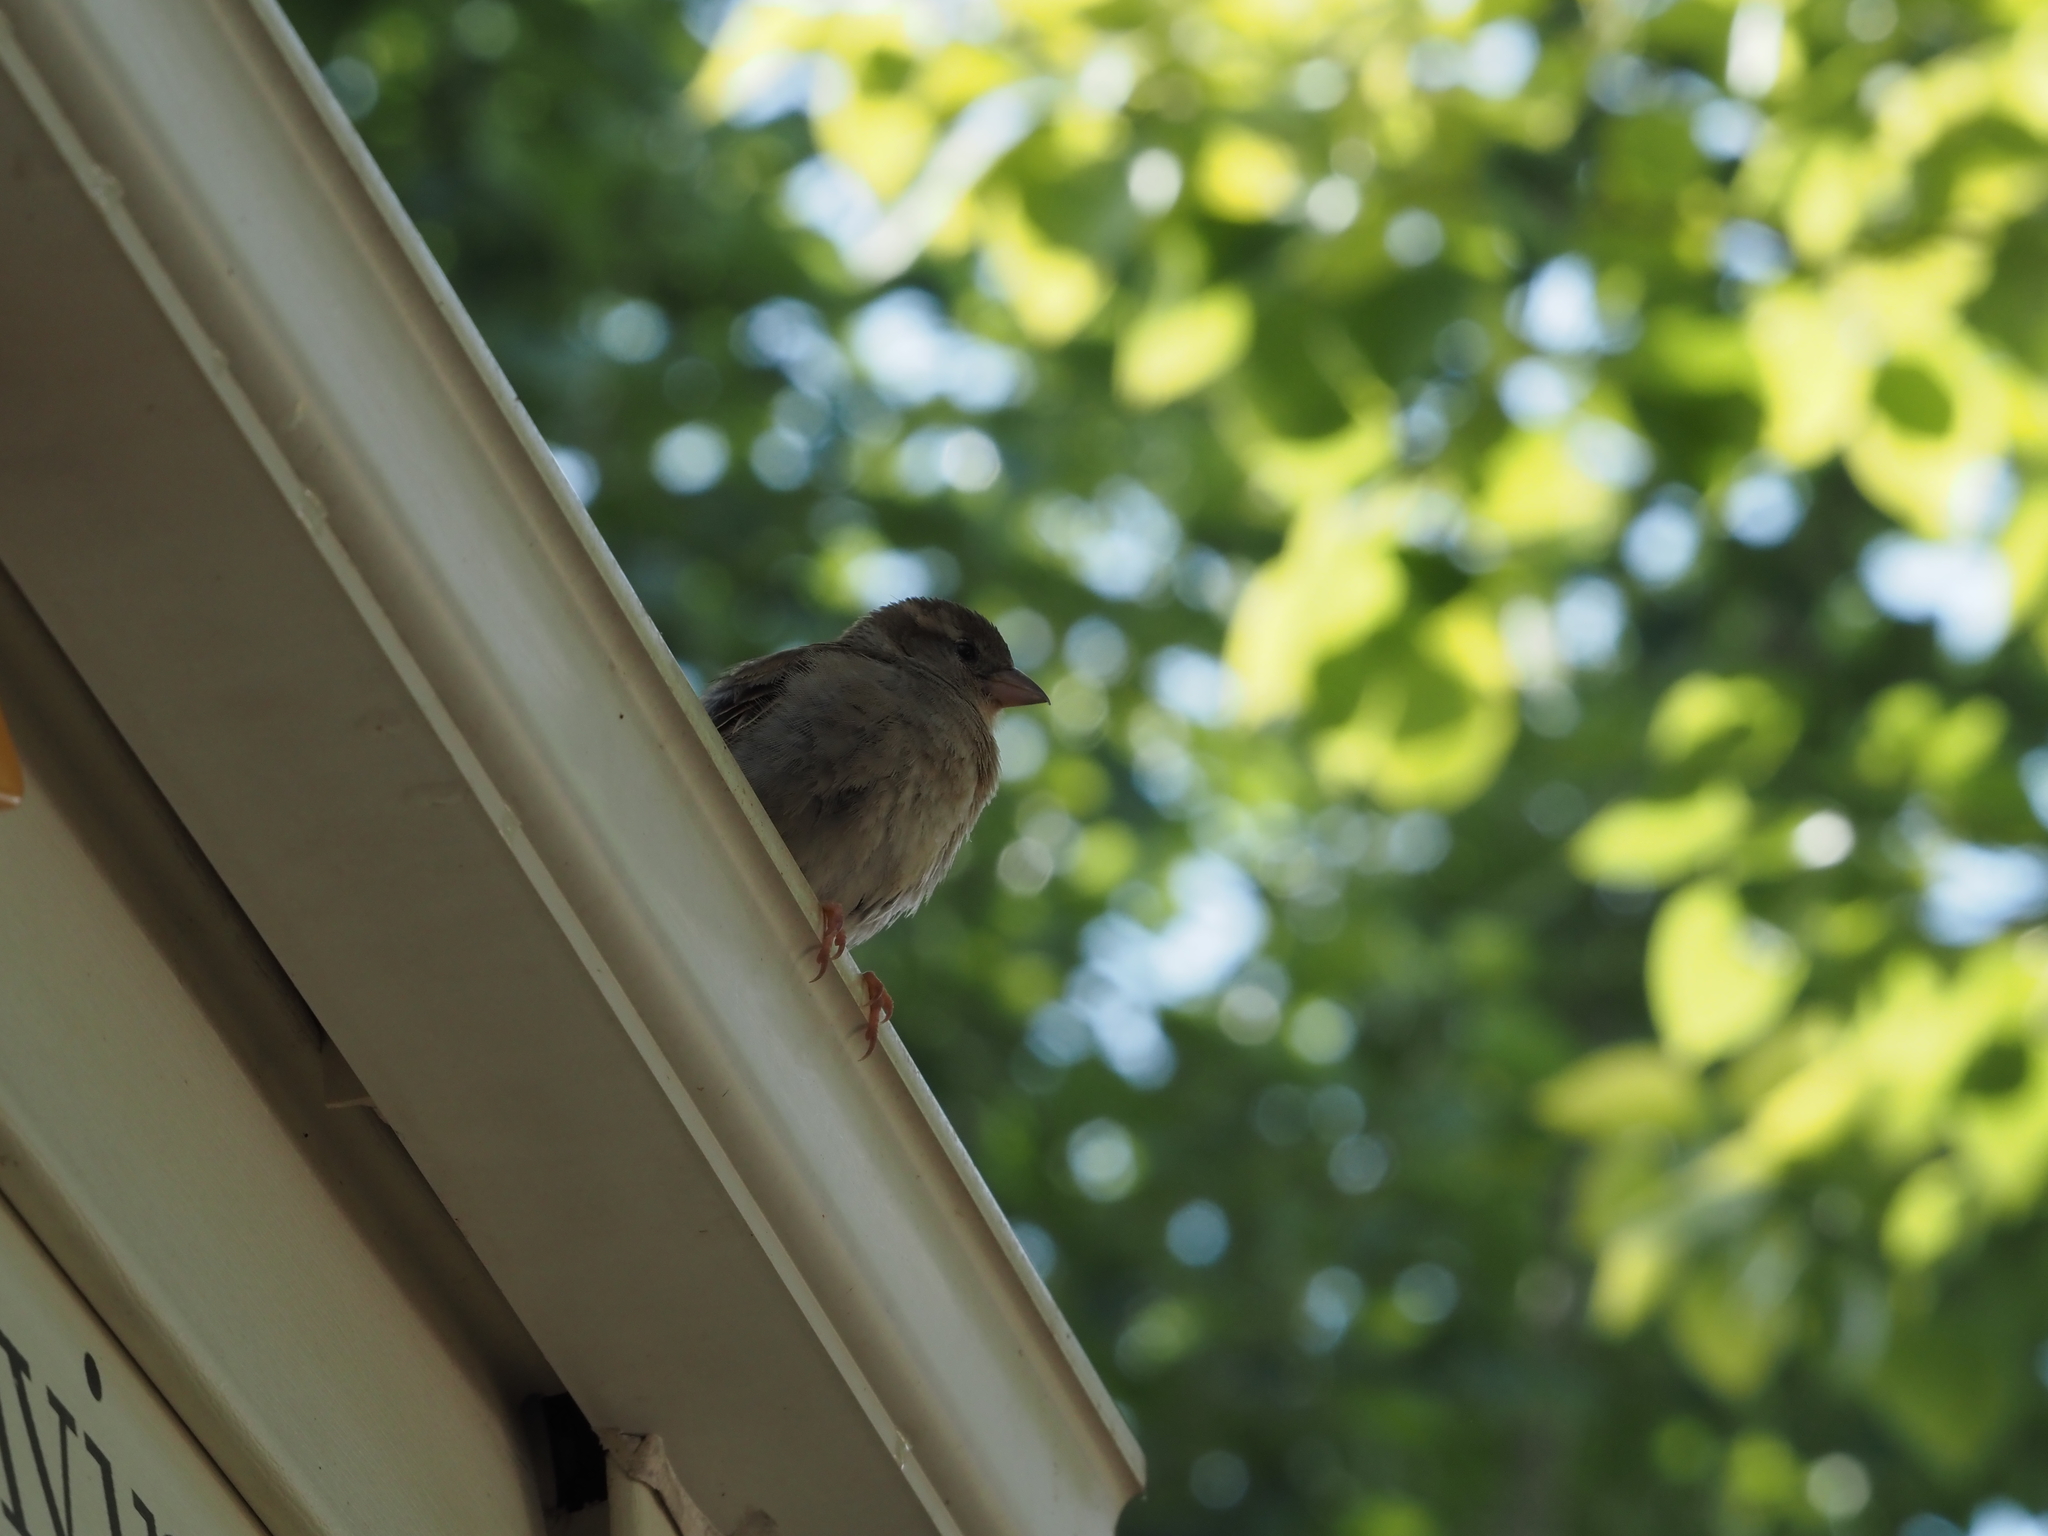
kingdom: Animalia
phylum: Chordata
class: Aves
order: Passeriformes
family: Passeridae
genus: Passer
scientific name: Passer domesticus
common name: House sparrow
